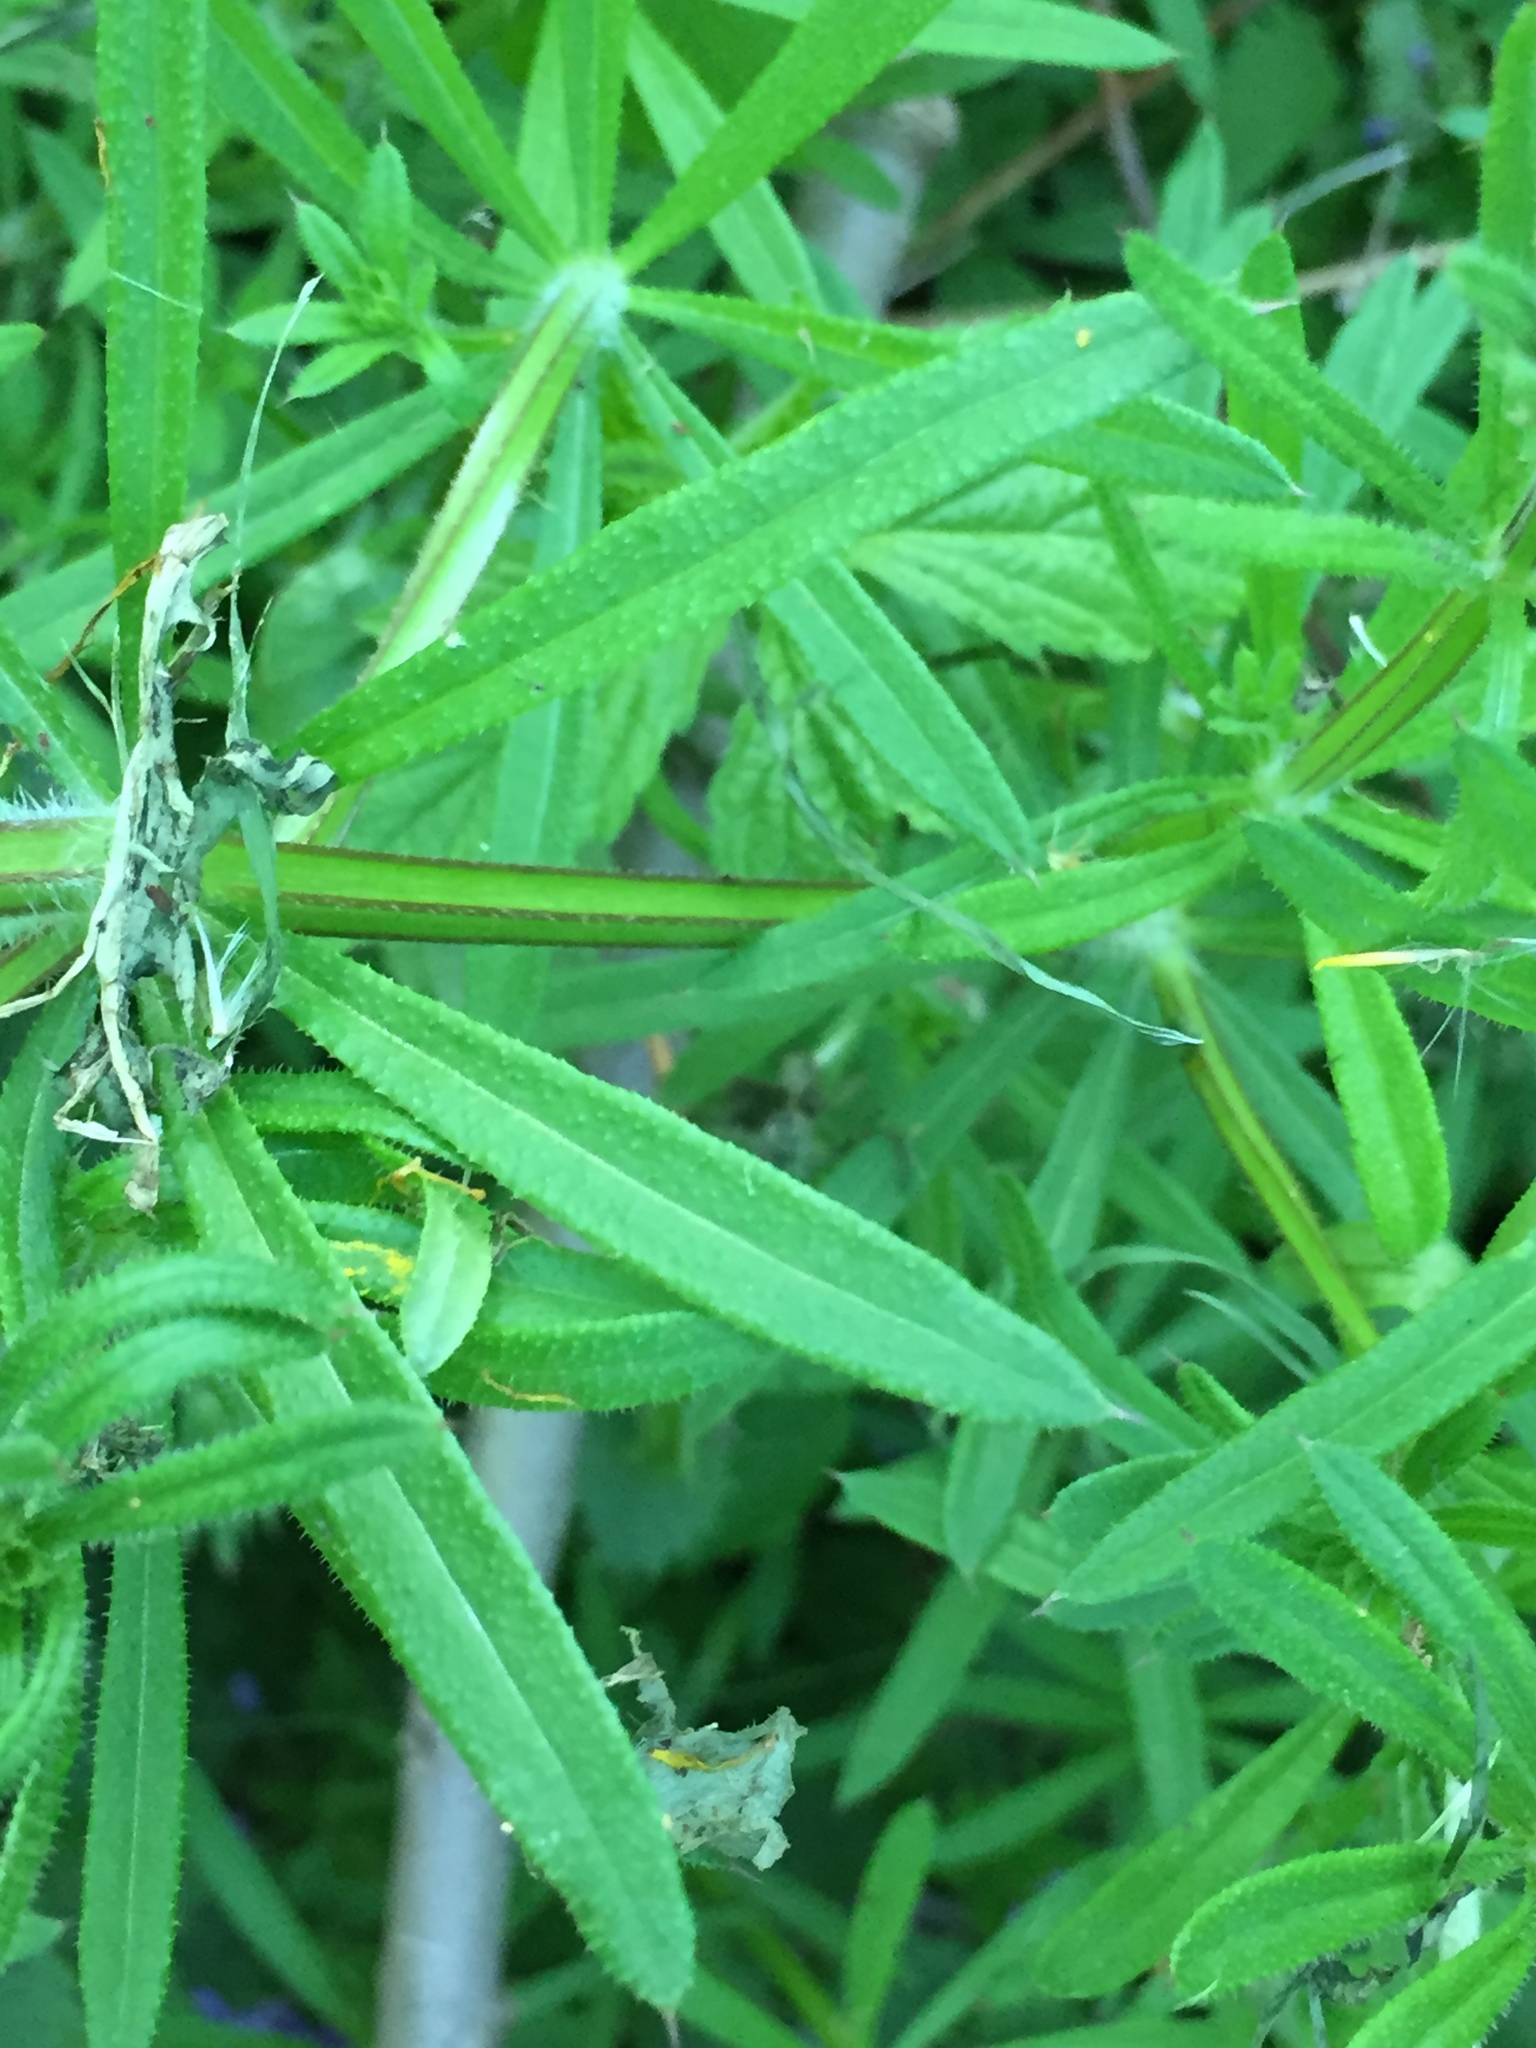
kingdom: Plantae
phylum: Tracheophyta
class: Magnoliopsida
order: Gentianales
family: Rubiaceae
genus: Galium
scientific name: Galium aparine
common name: Cleavers
